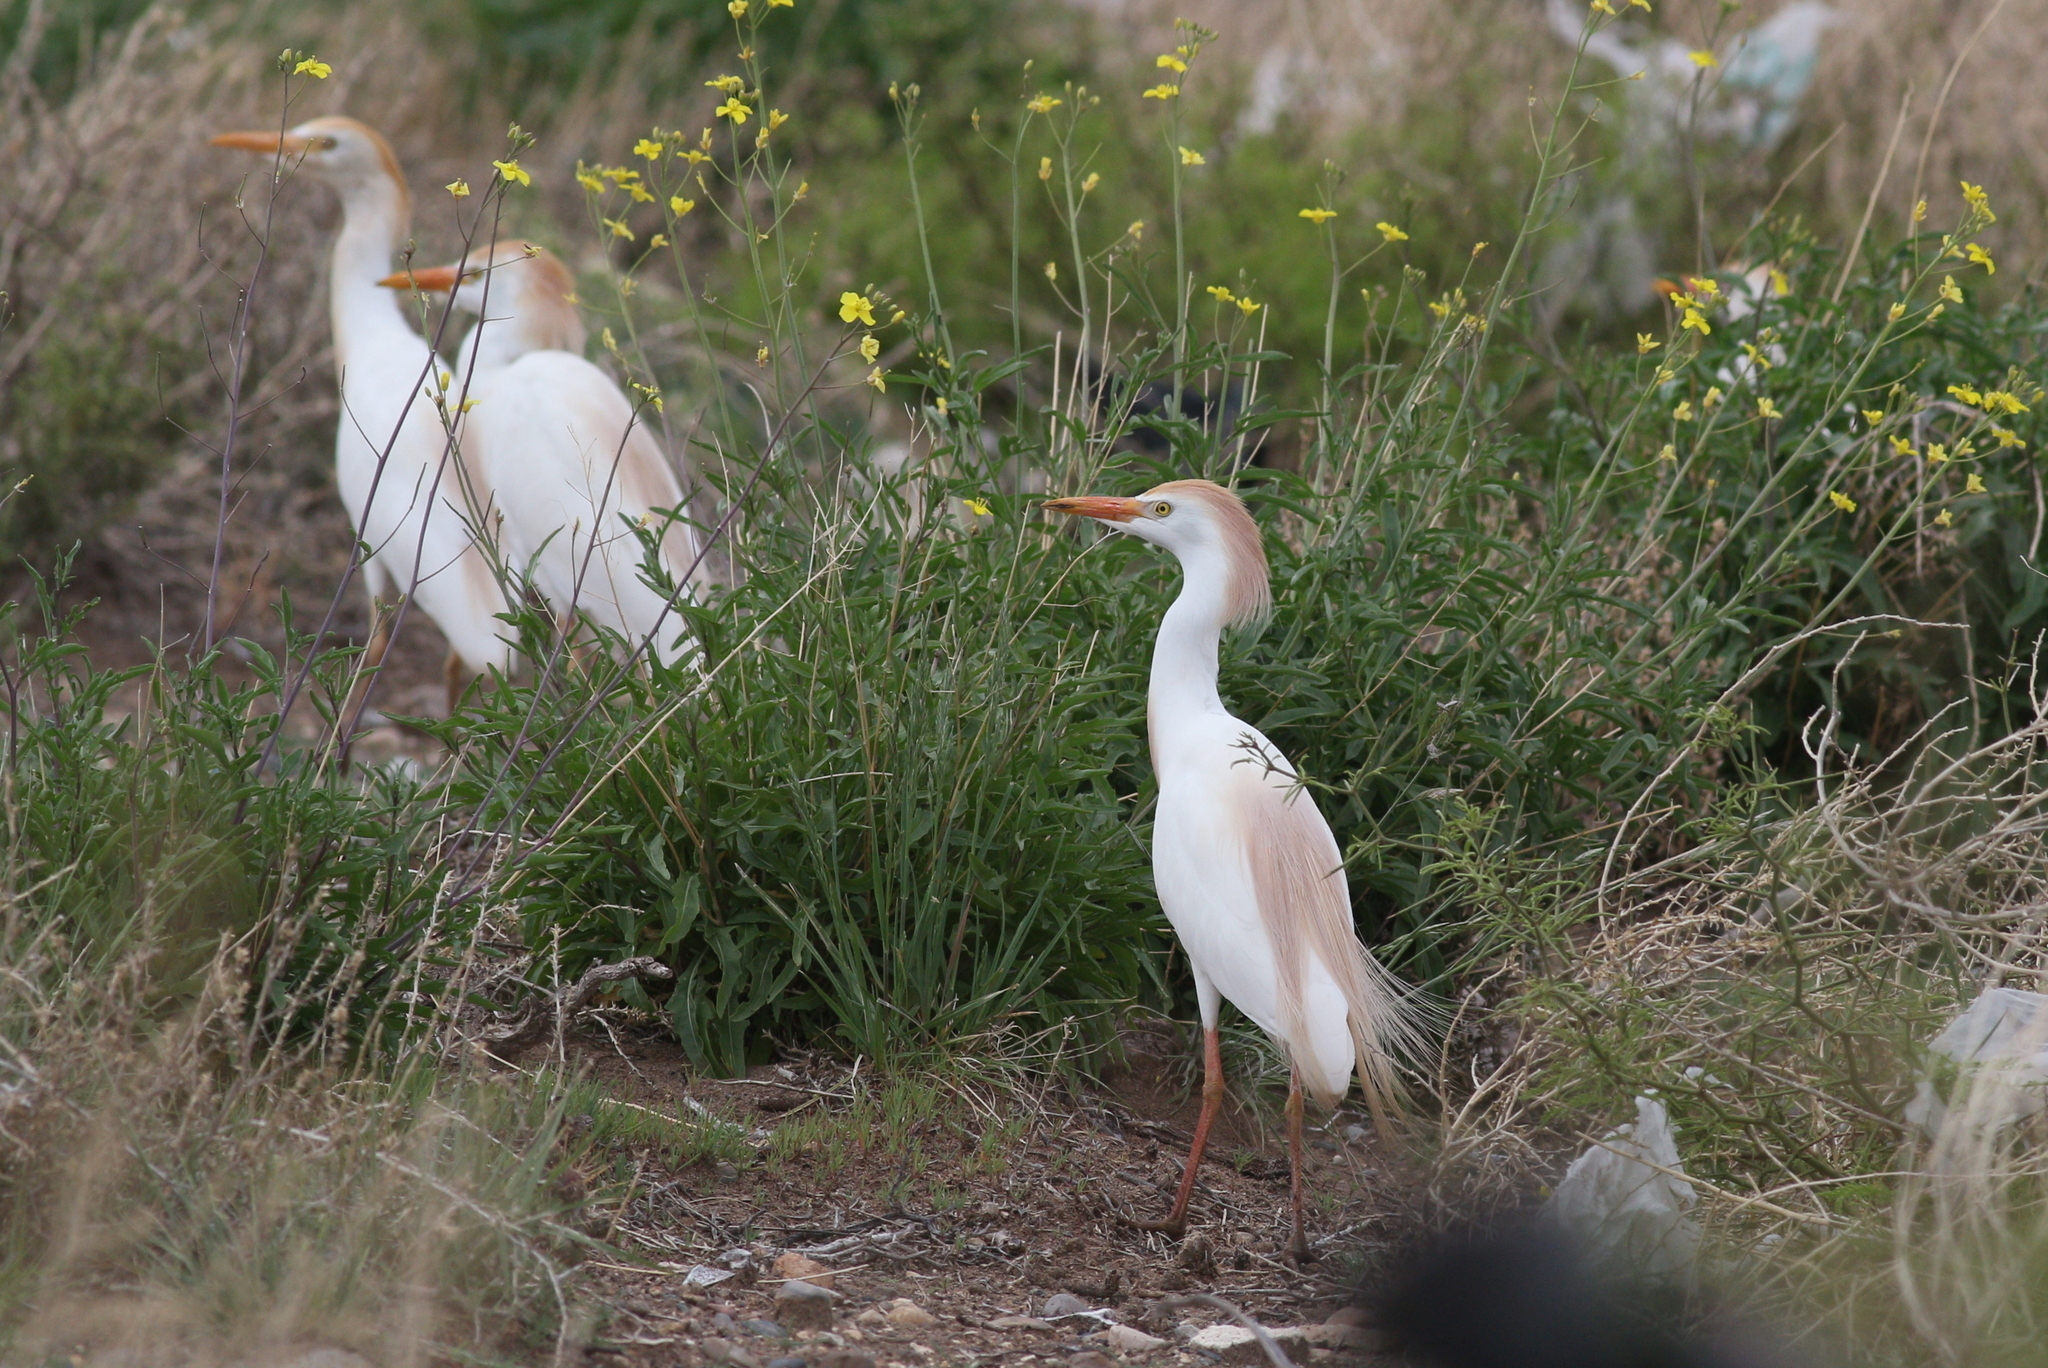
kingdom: Animalia
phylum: Chordata
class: Aves
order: Pelecaniformes
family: Ardeidae
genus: Bubulcus
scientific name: Bubulcus ibis
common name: Cattle egret
